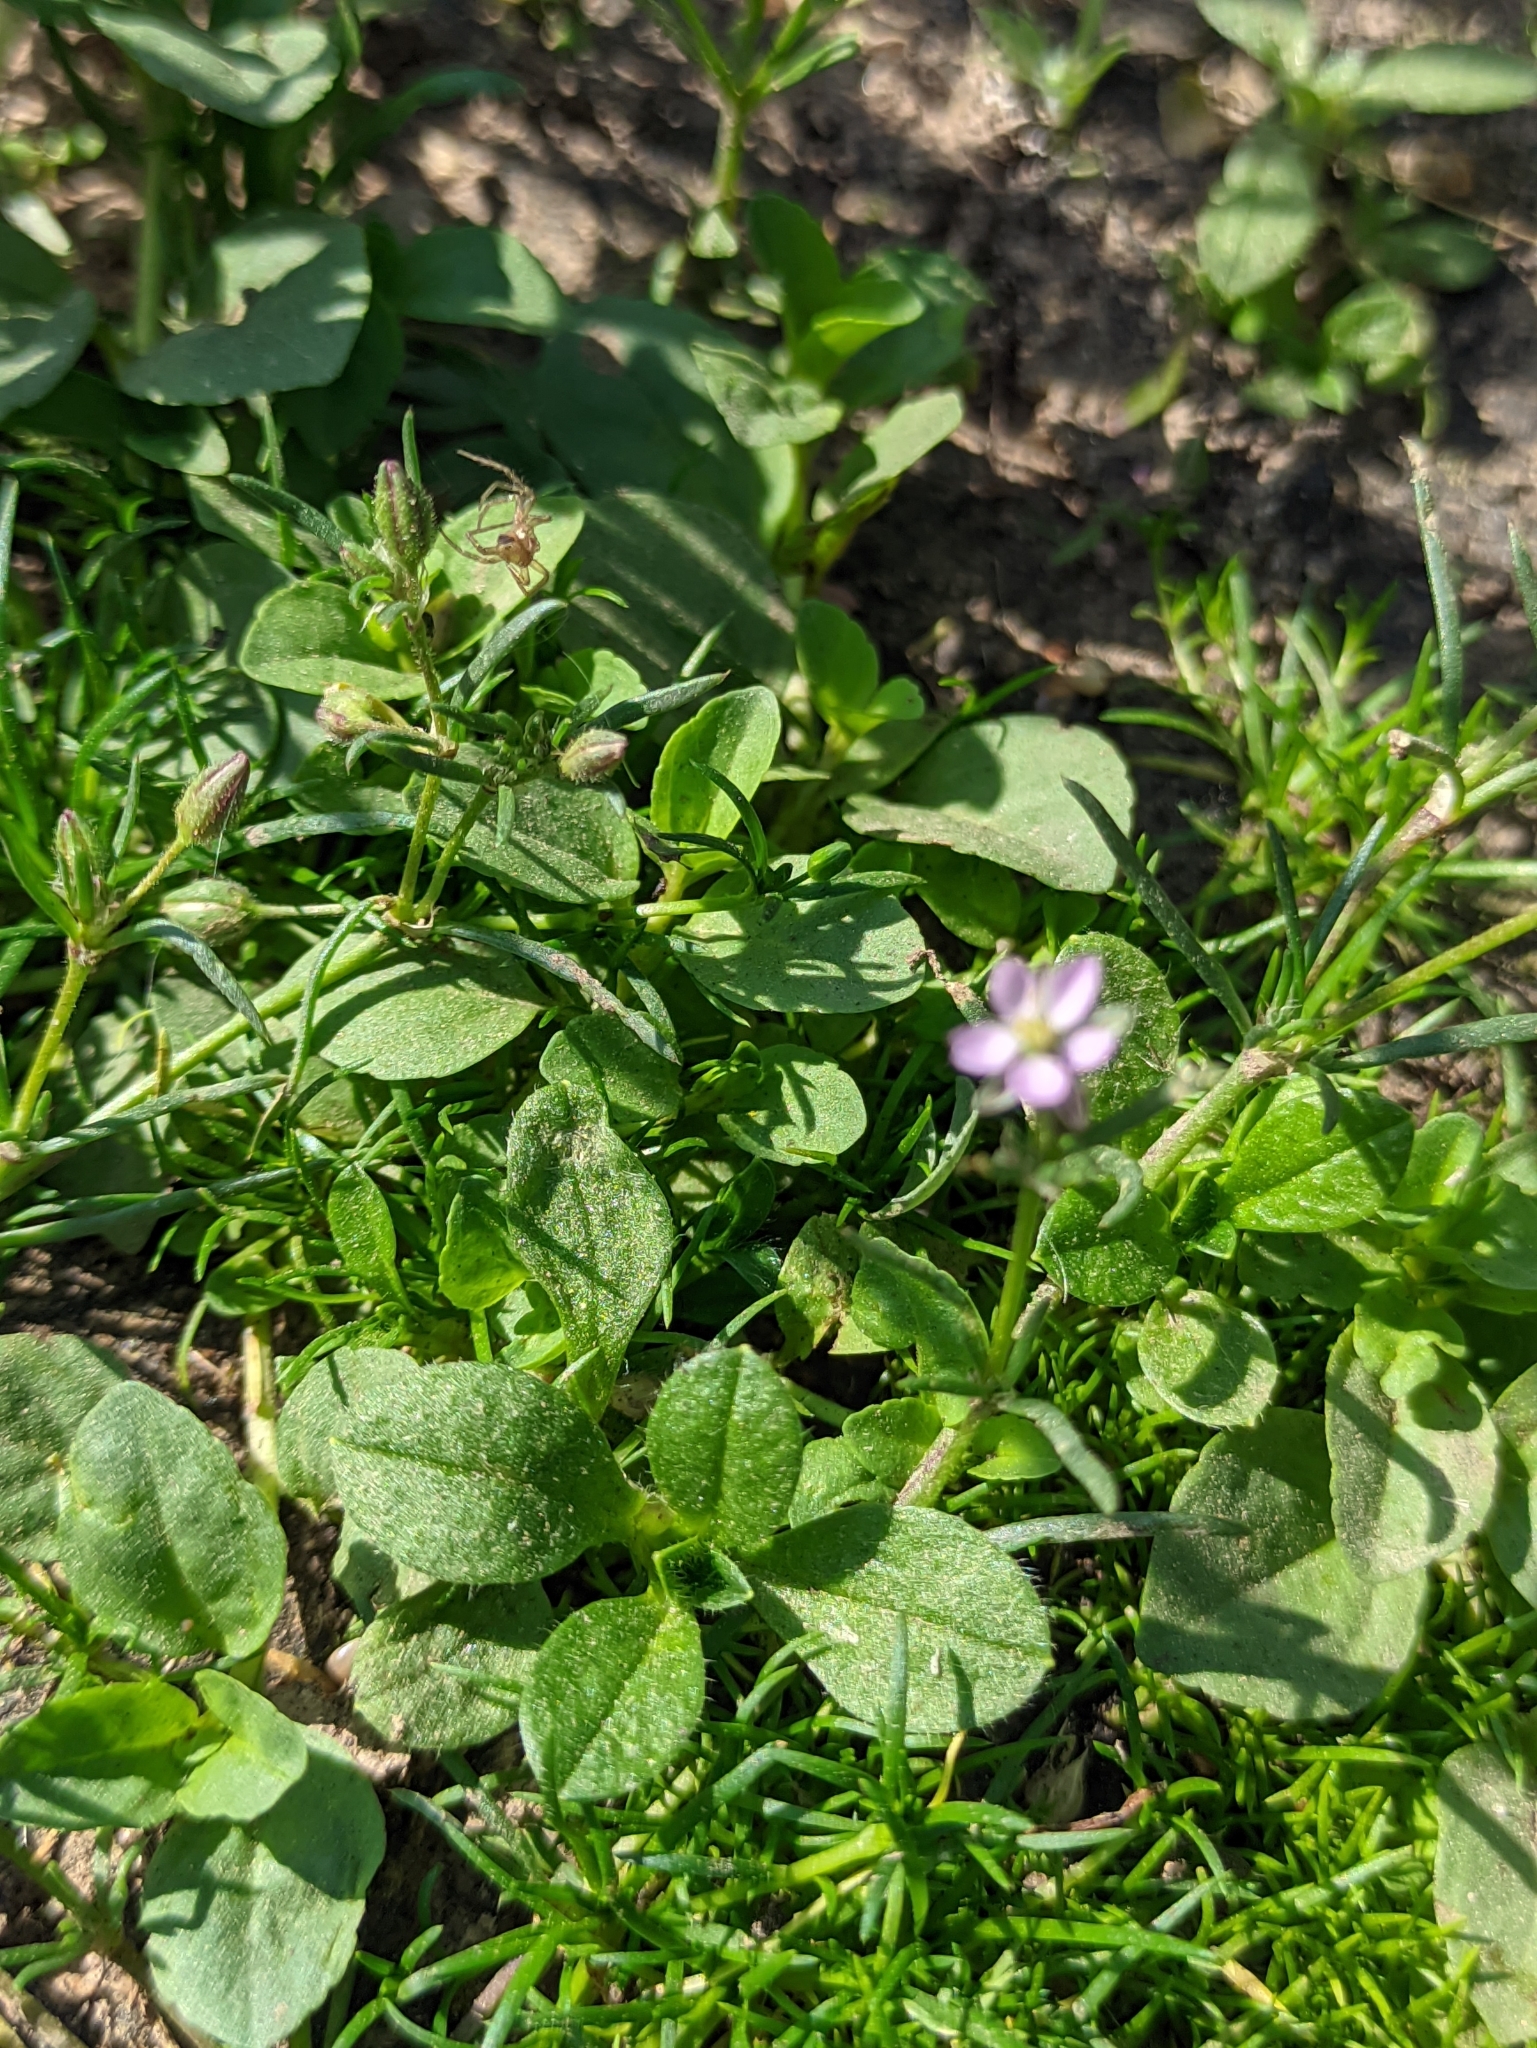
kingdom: Plantae
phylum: Tracheophyta
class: Magnoliopsida
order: Caryophyllales
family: Caryophyllaceae
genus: Spergularia
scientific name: Spergularia rubra
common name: Red sand-spurrey
